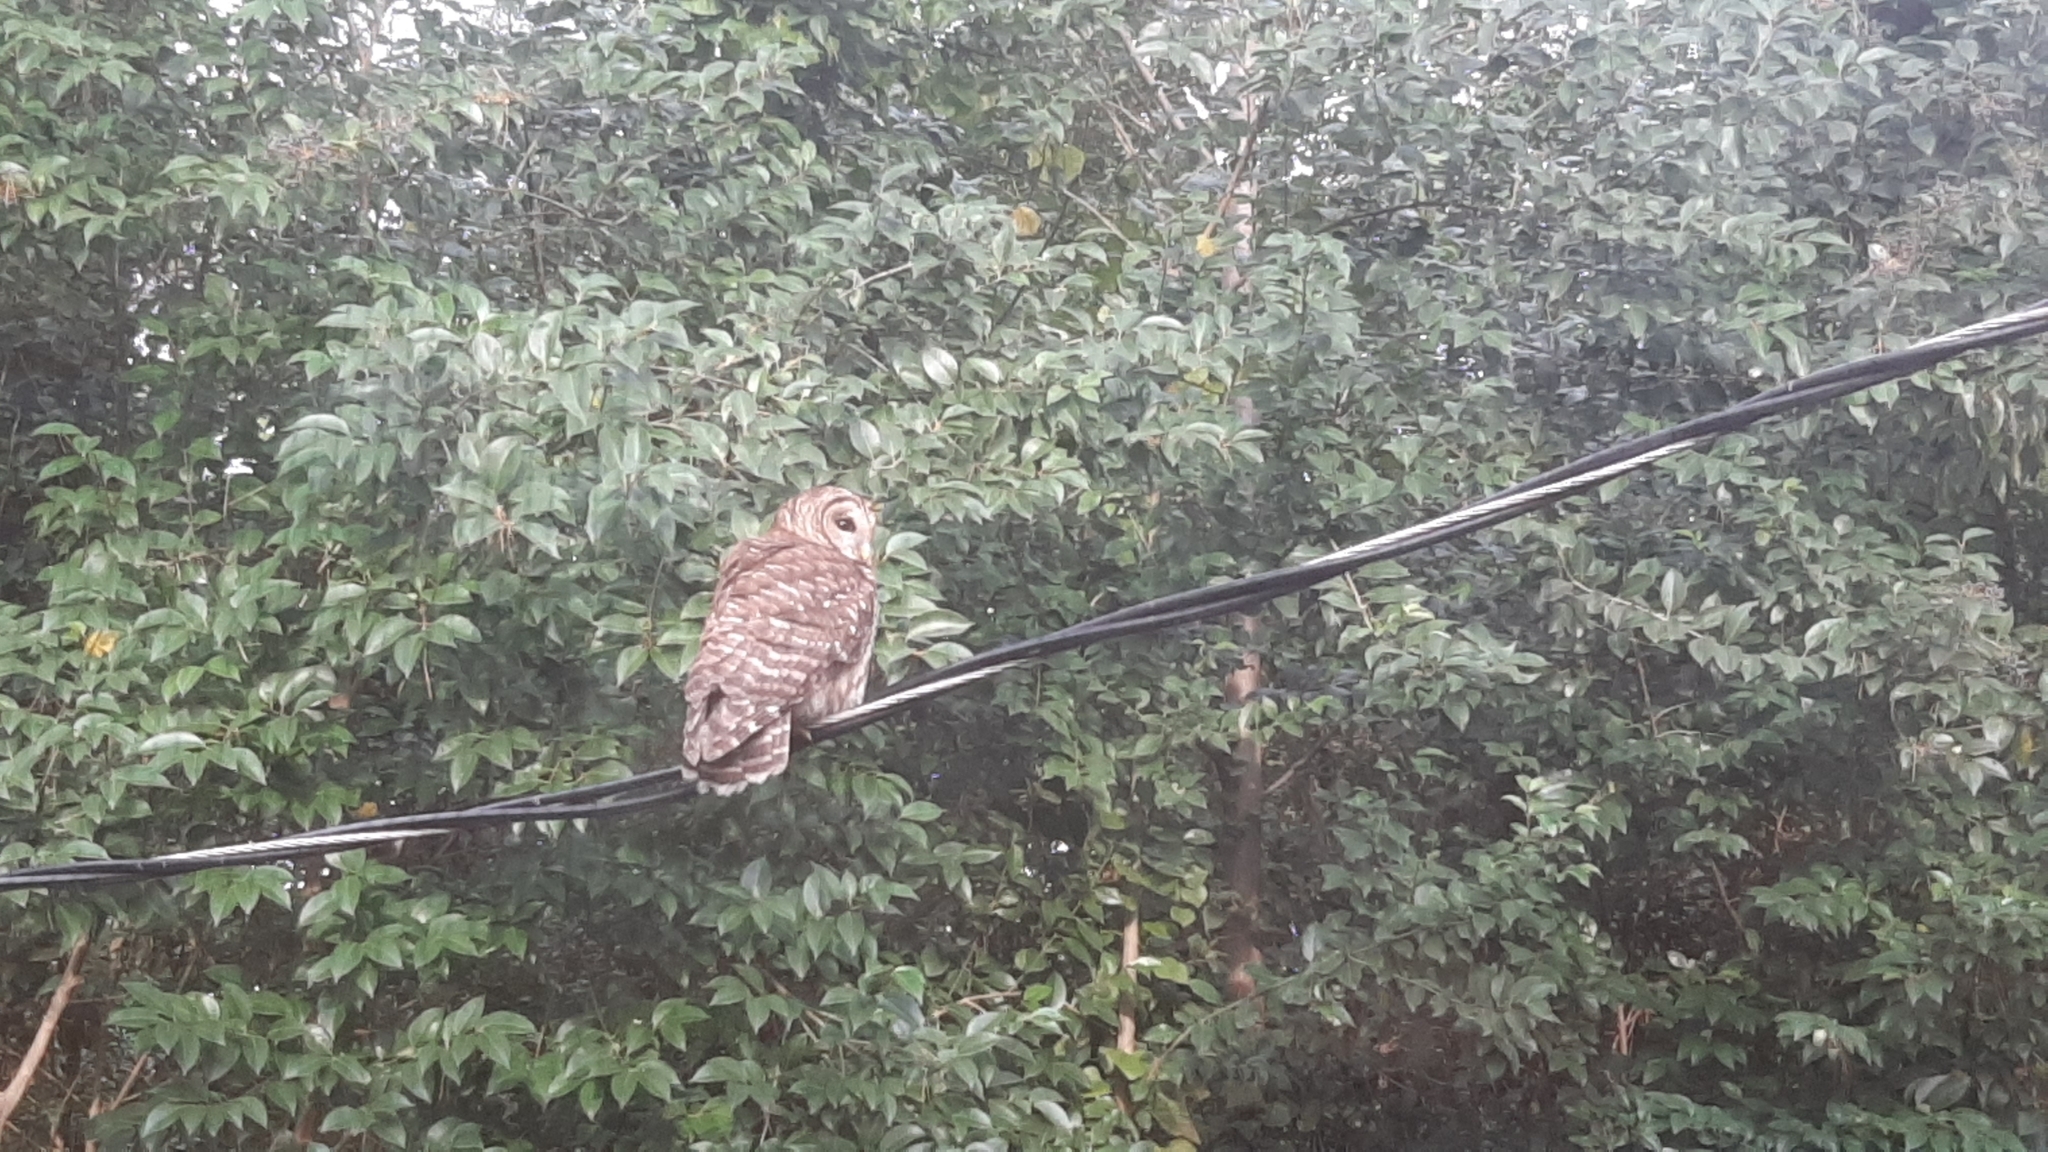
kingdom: Animalia
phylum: Chordata
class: Aves
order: Strigiformes
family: Strigidae
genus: Strix
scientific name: Strix varia
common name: Barred owl
